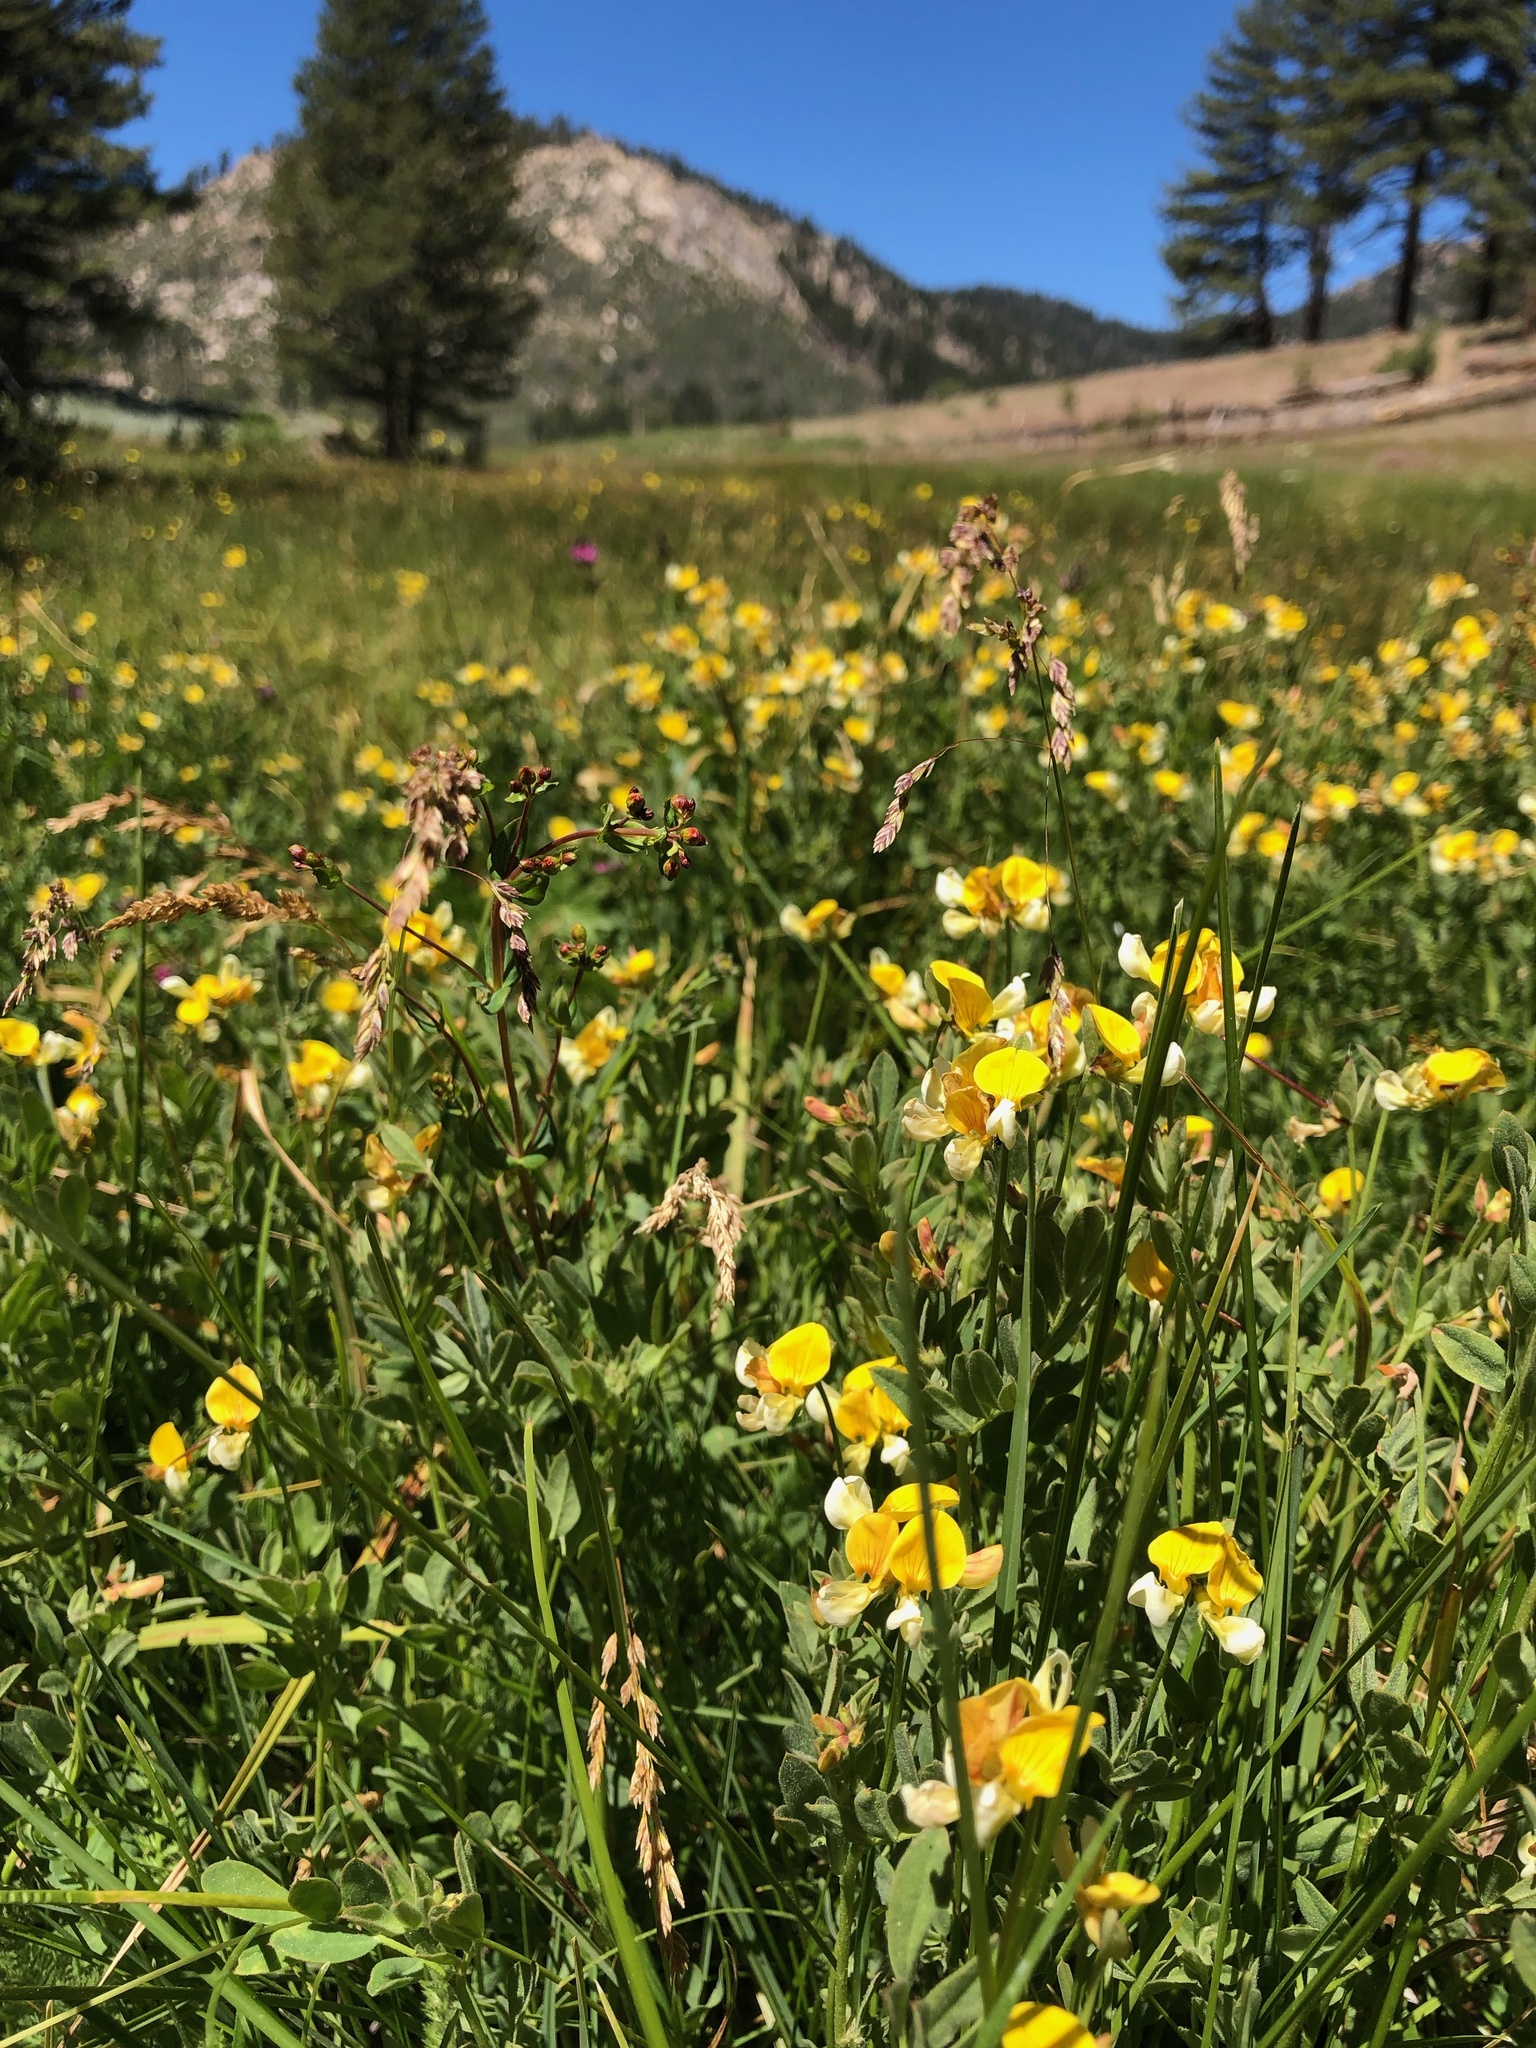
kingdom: Plantae
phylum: Tracheophyta
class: Magnoliopsida
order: Fabales
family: Fabaceae
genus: Hosackia
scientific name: Hosackia oblongifolia
